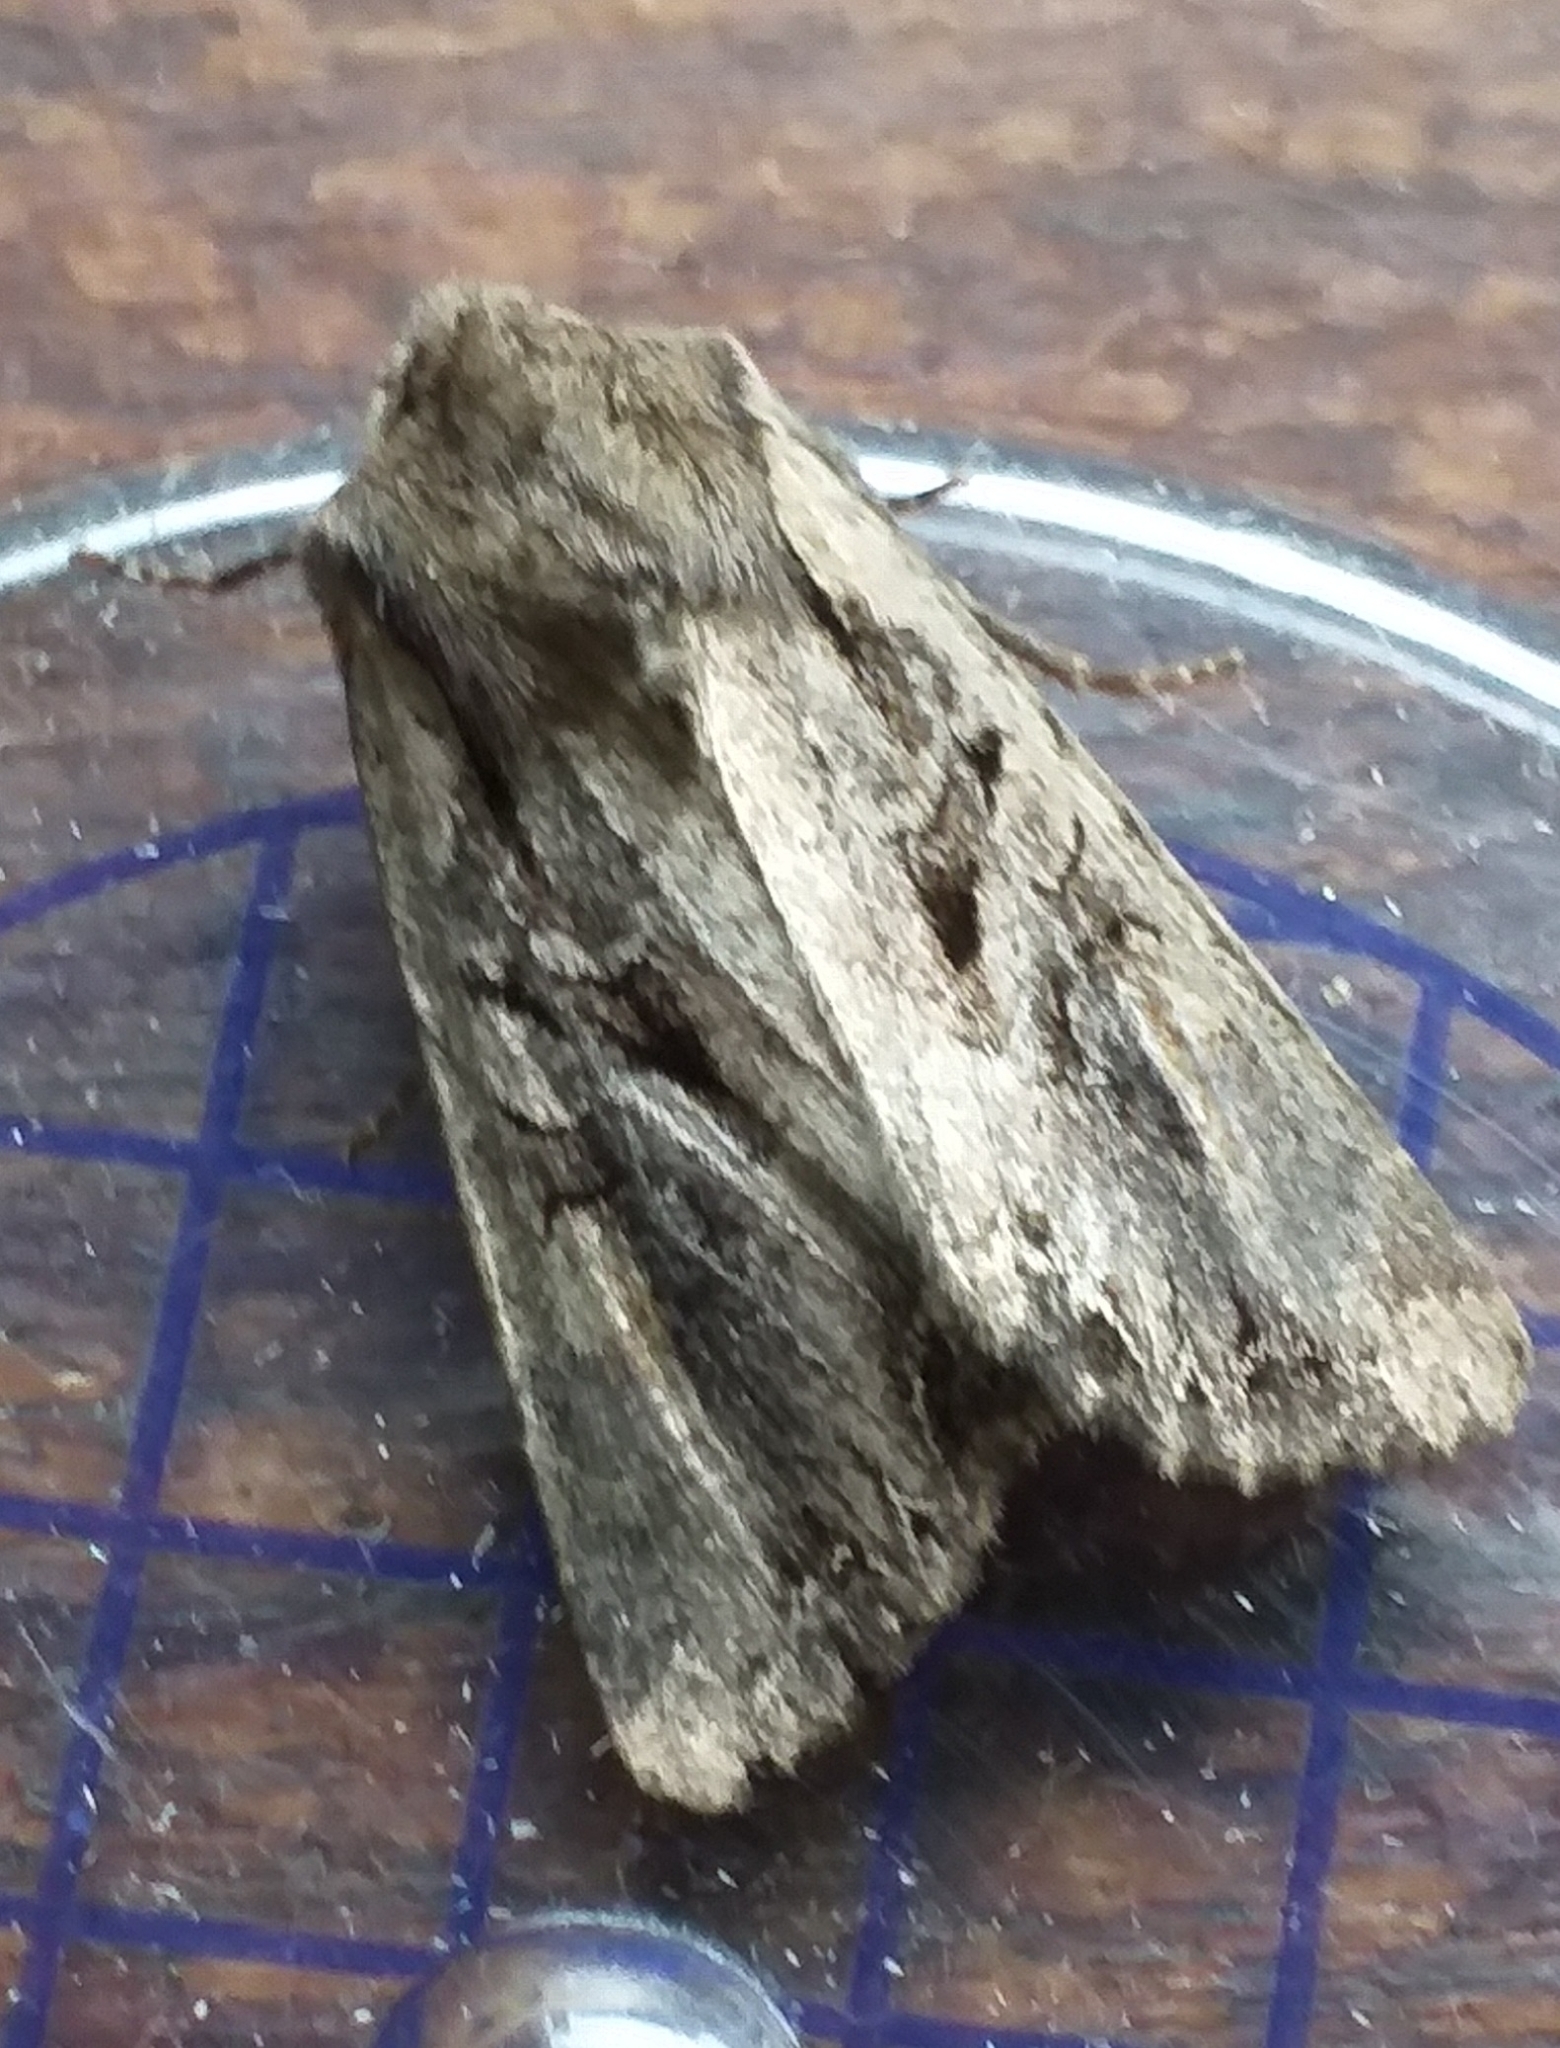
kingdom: Animalia
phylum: Arthropoda
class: Insecta
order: Lepidoptera
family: Noctuidae
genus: Lacanobia
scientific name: Lacanobia suasa
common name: Dog's tooth
